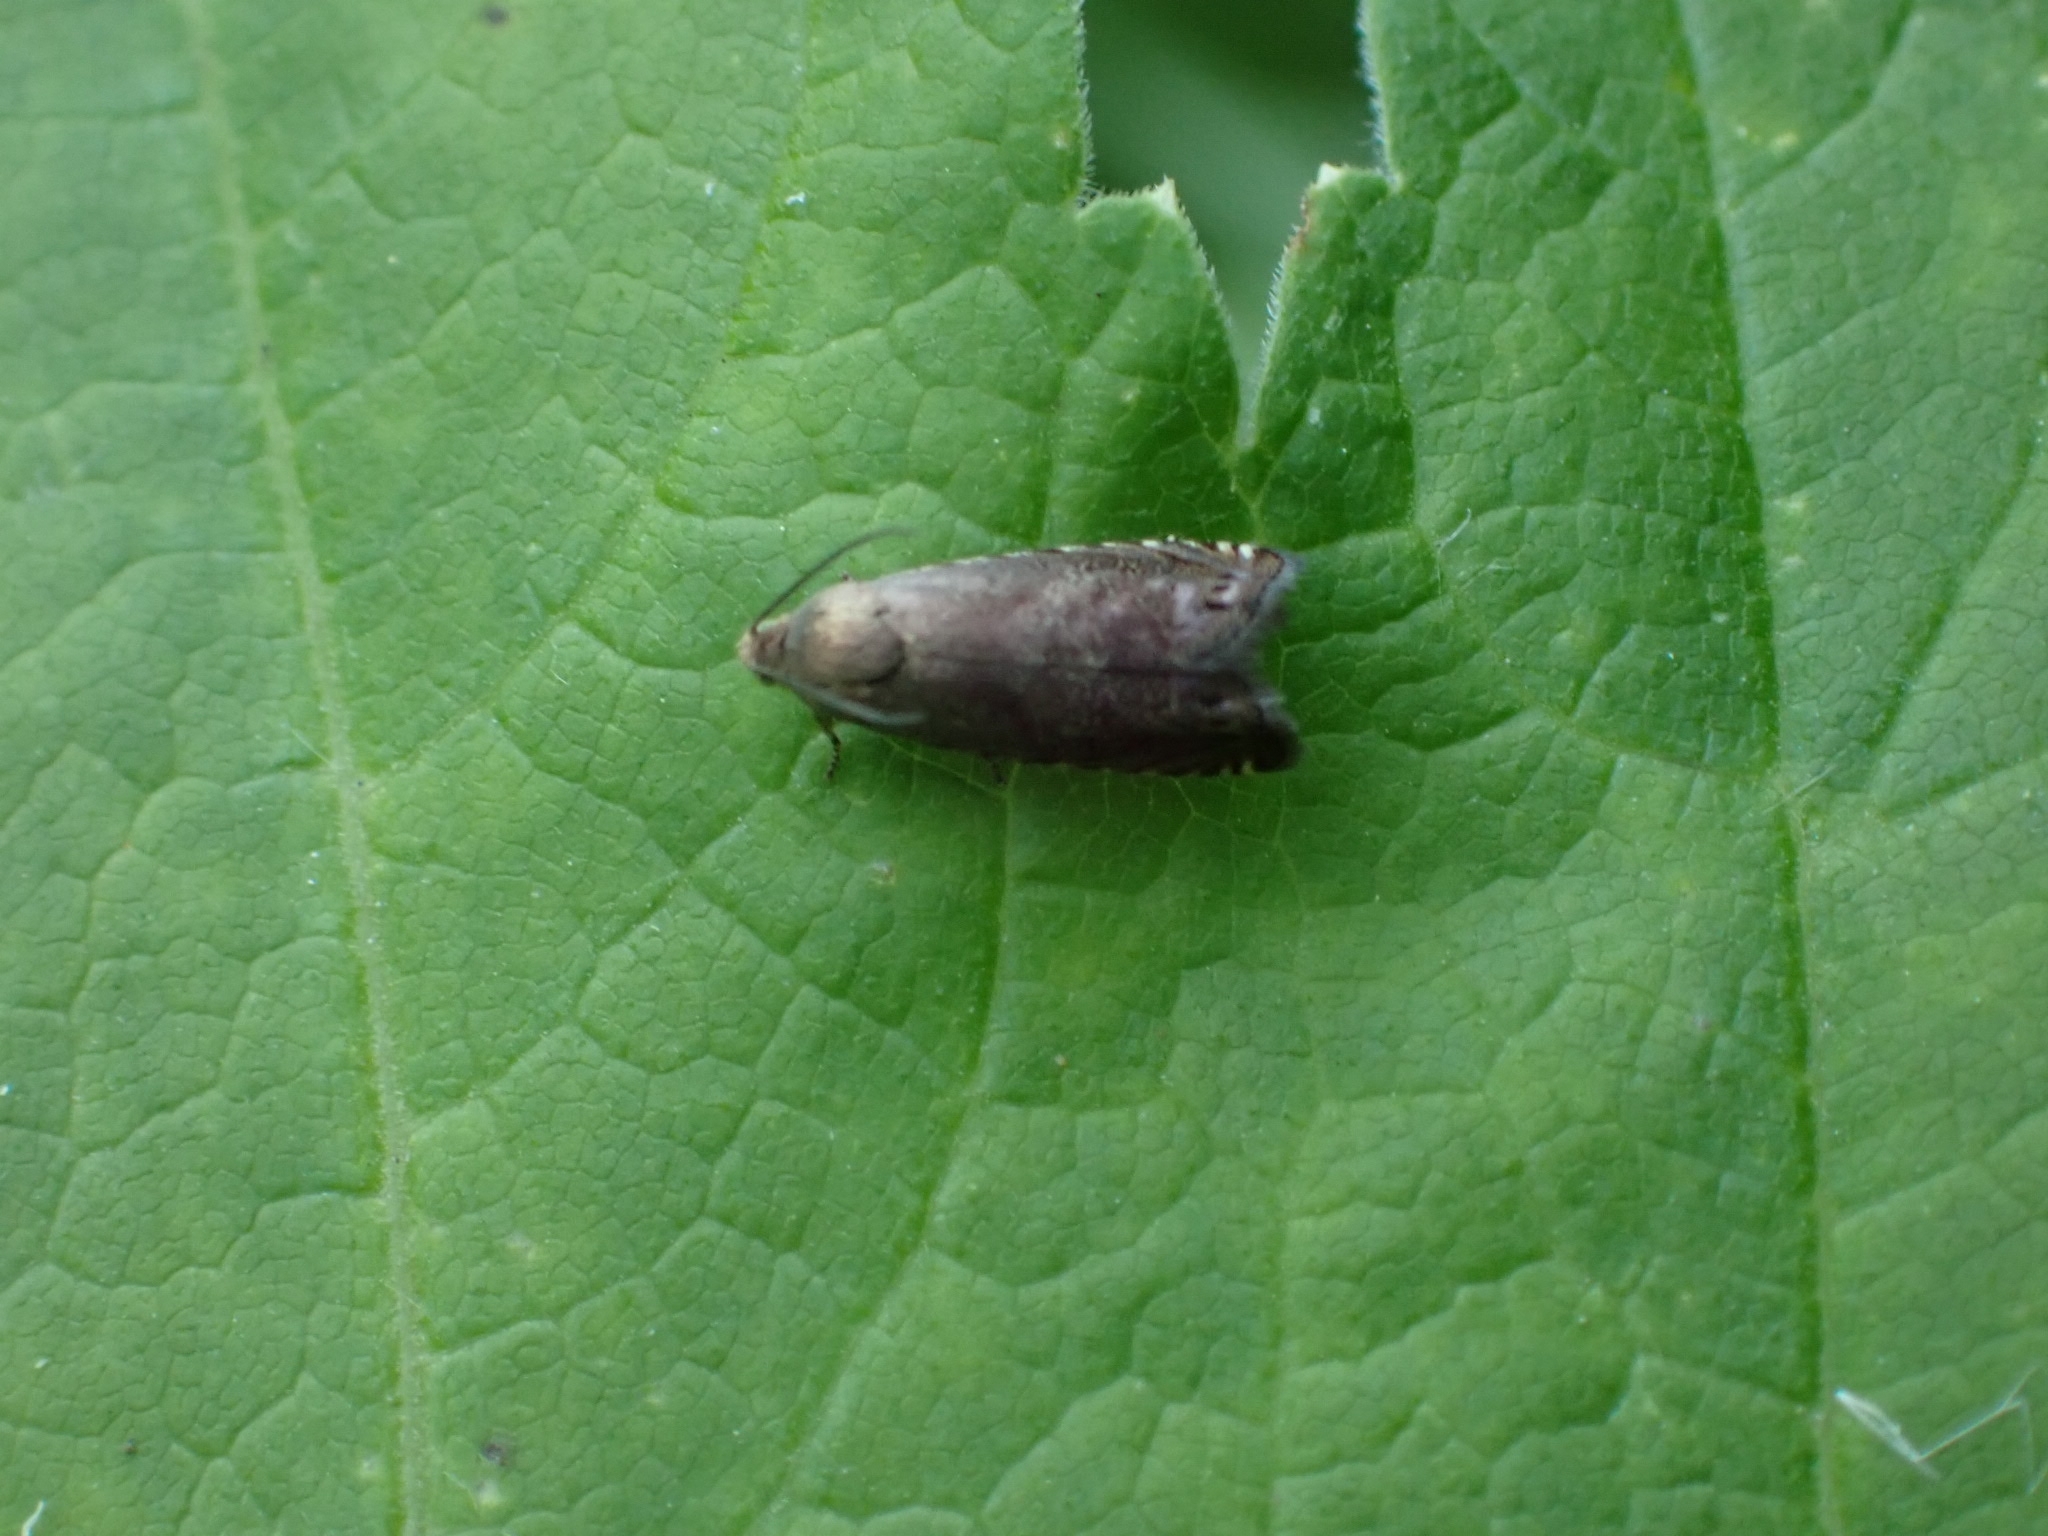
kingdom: Animalia
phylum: Arthropoda
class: Insecta
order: Lepidoptera
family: Tortricidae
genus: Cydia
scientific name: Cydia nigricana
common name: Pea moth
